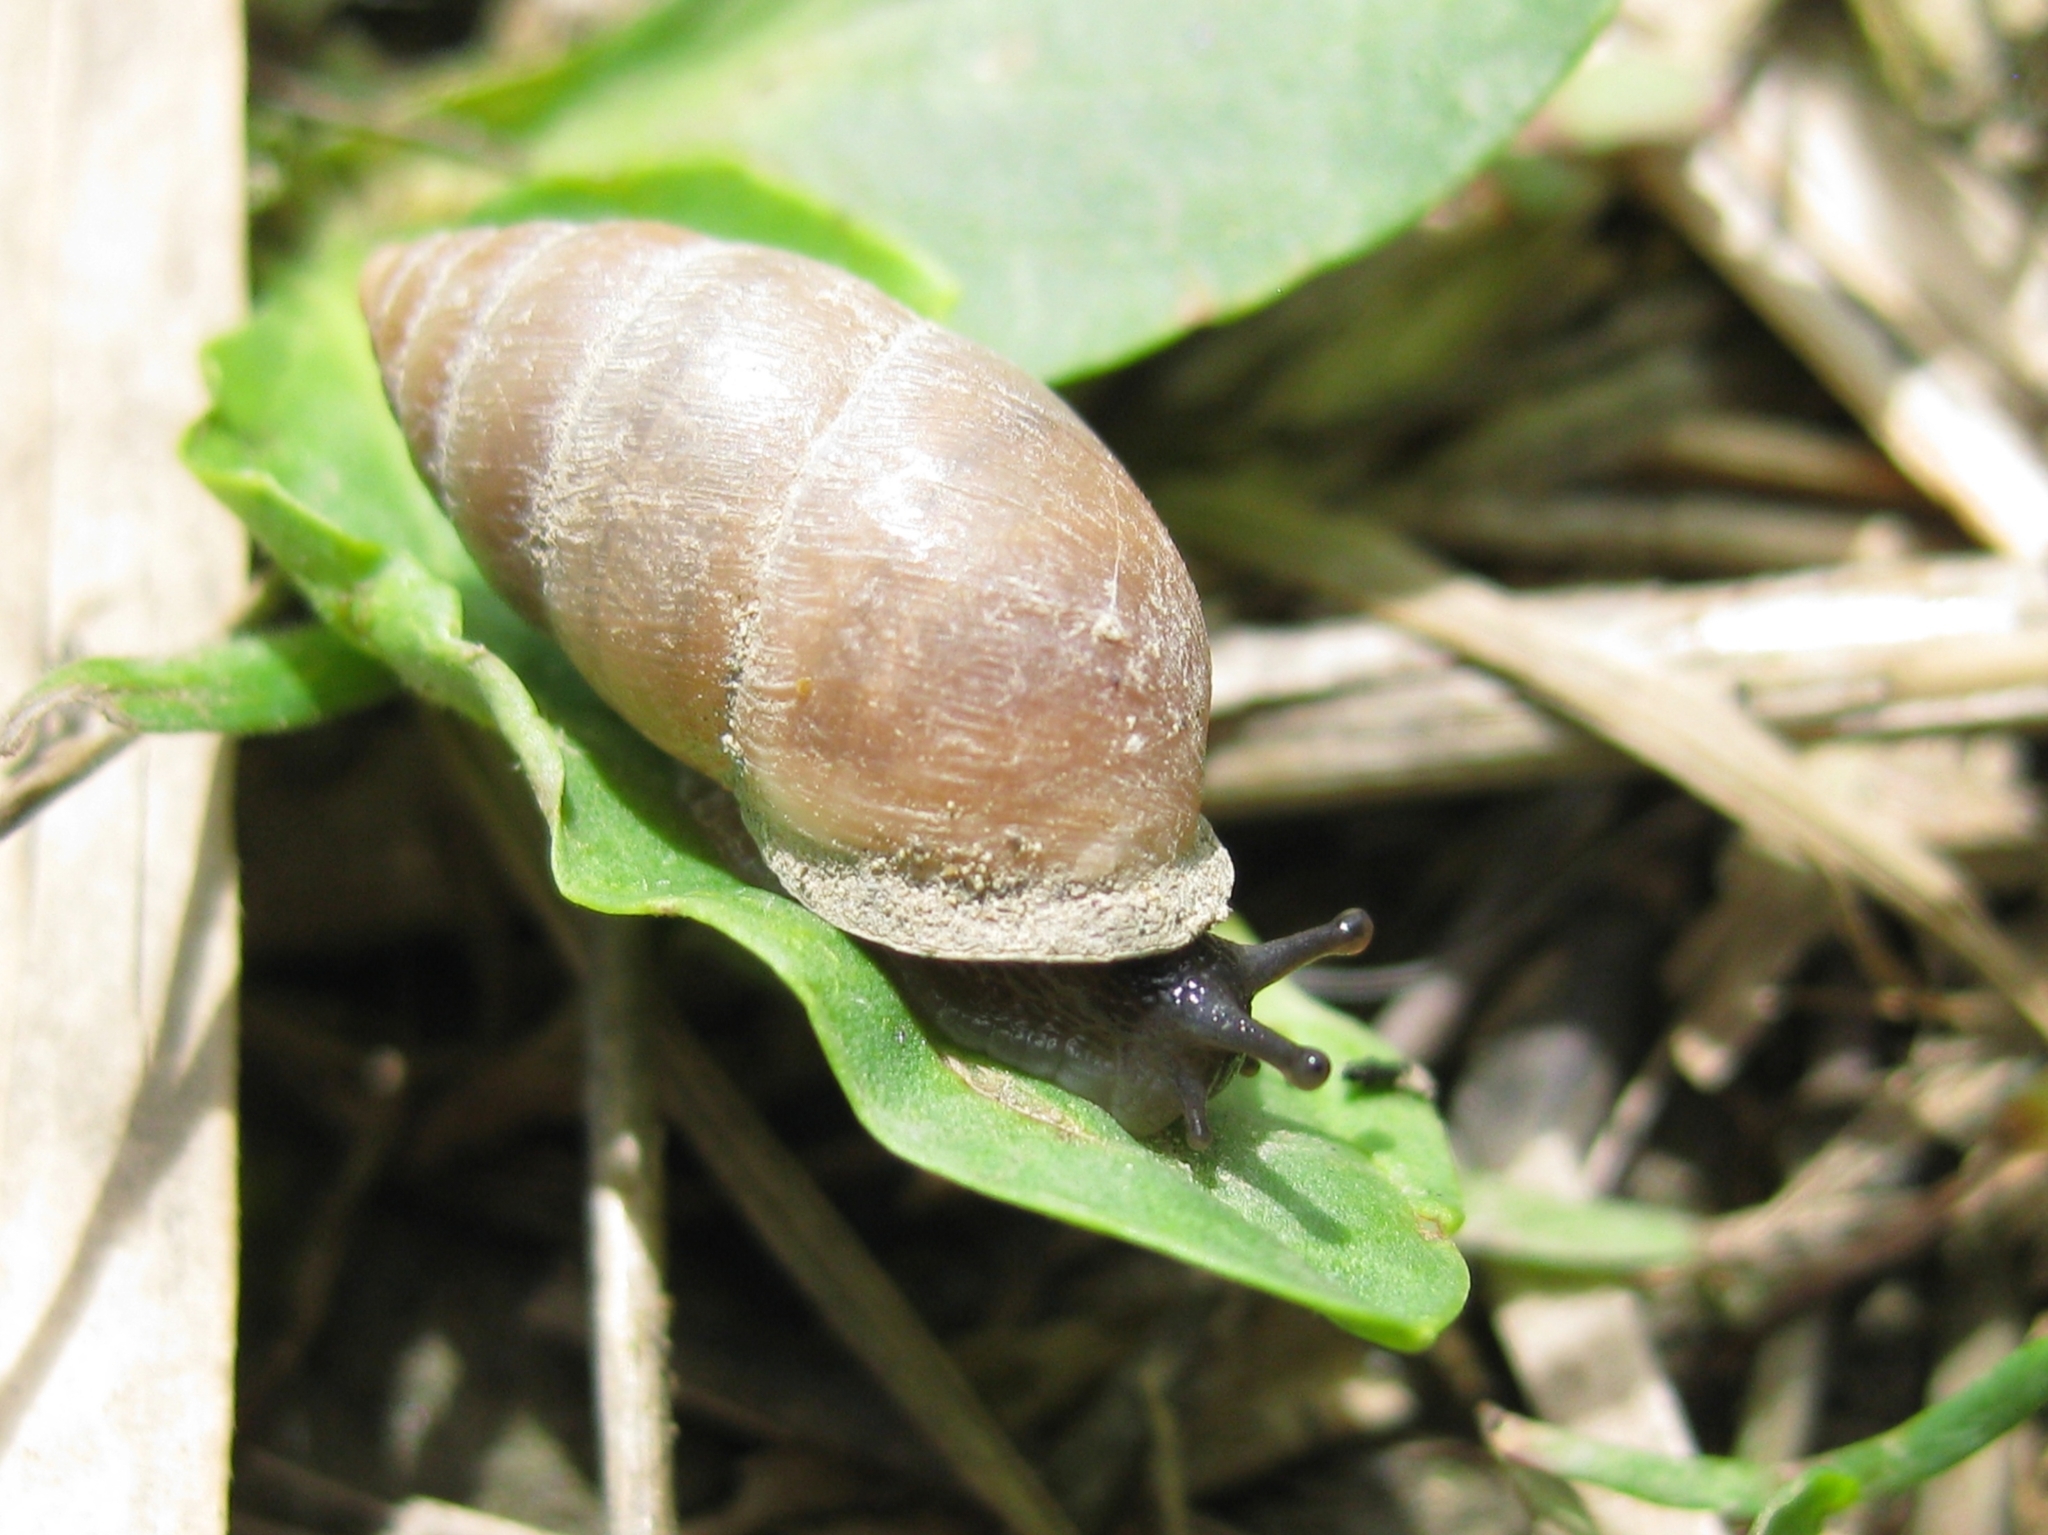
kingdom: Animalia
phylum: Mollusca
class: Gastropoda
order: Stylommatophora
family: Enidae
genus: Chondrula
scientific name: Chondrula tridens
